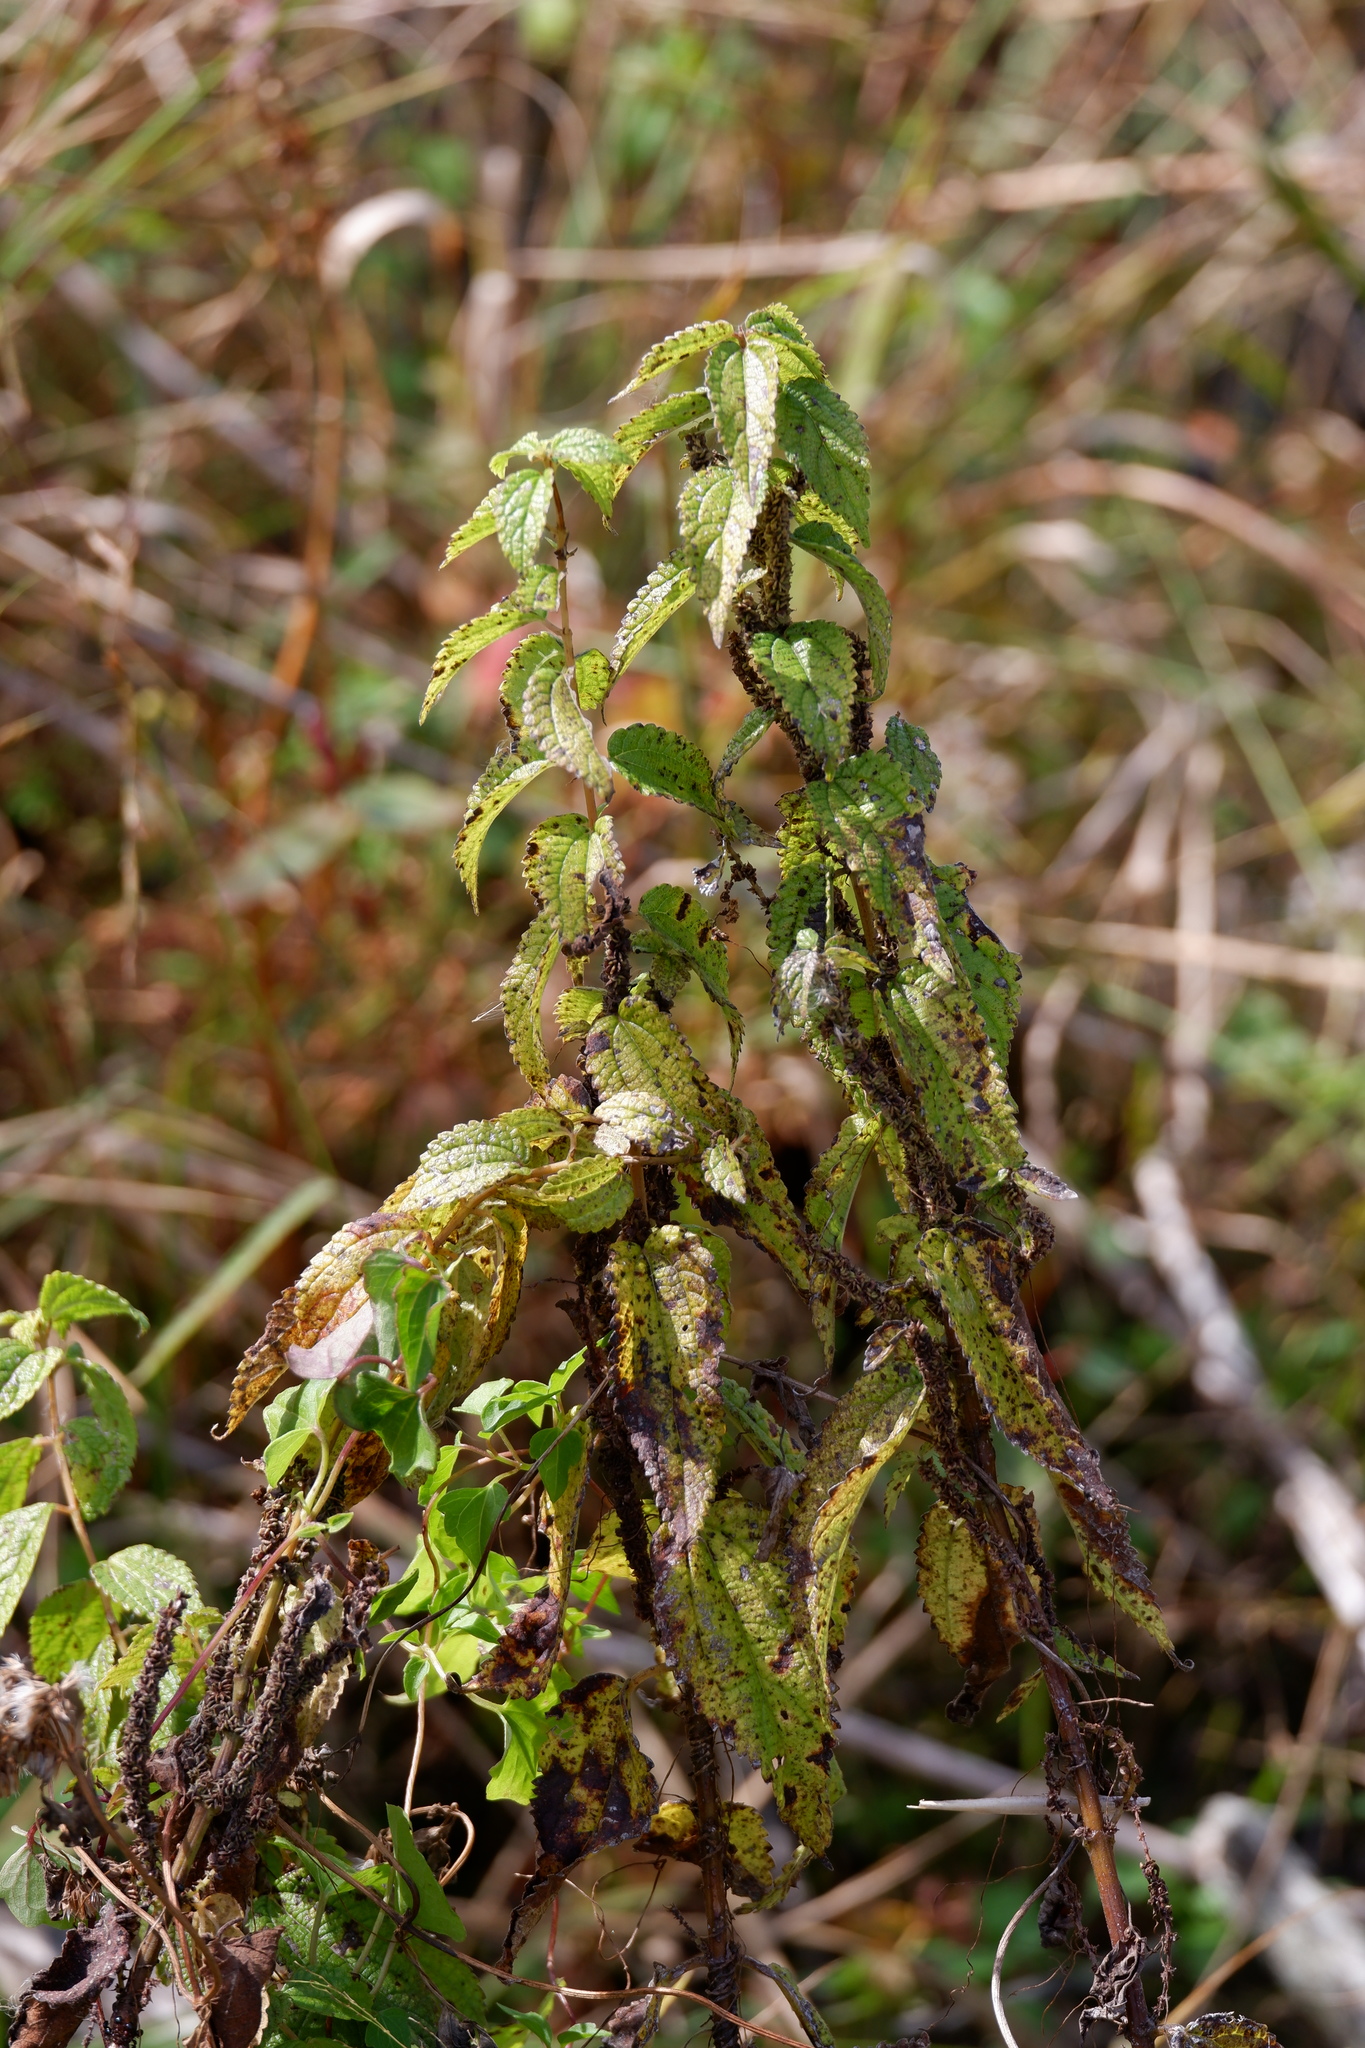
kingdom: Plantae
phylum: Tracheophyta
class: Magnoliopsida
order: Rosales
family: Urticaceae
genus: Boehmeria
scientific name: Boehmeria cylindrica
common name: Bog-hemp
